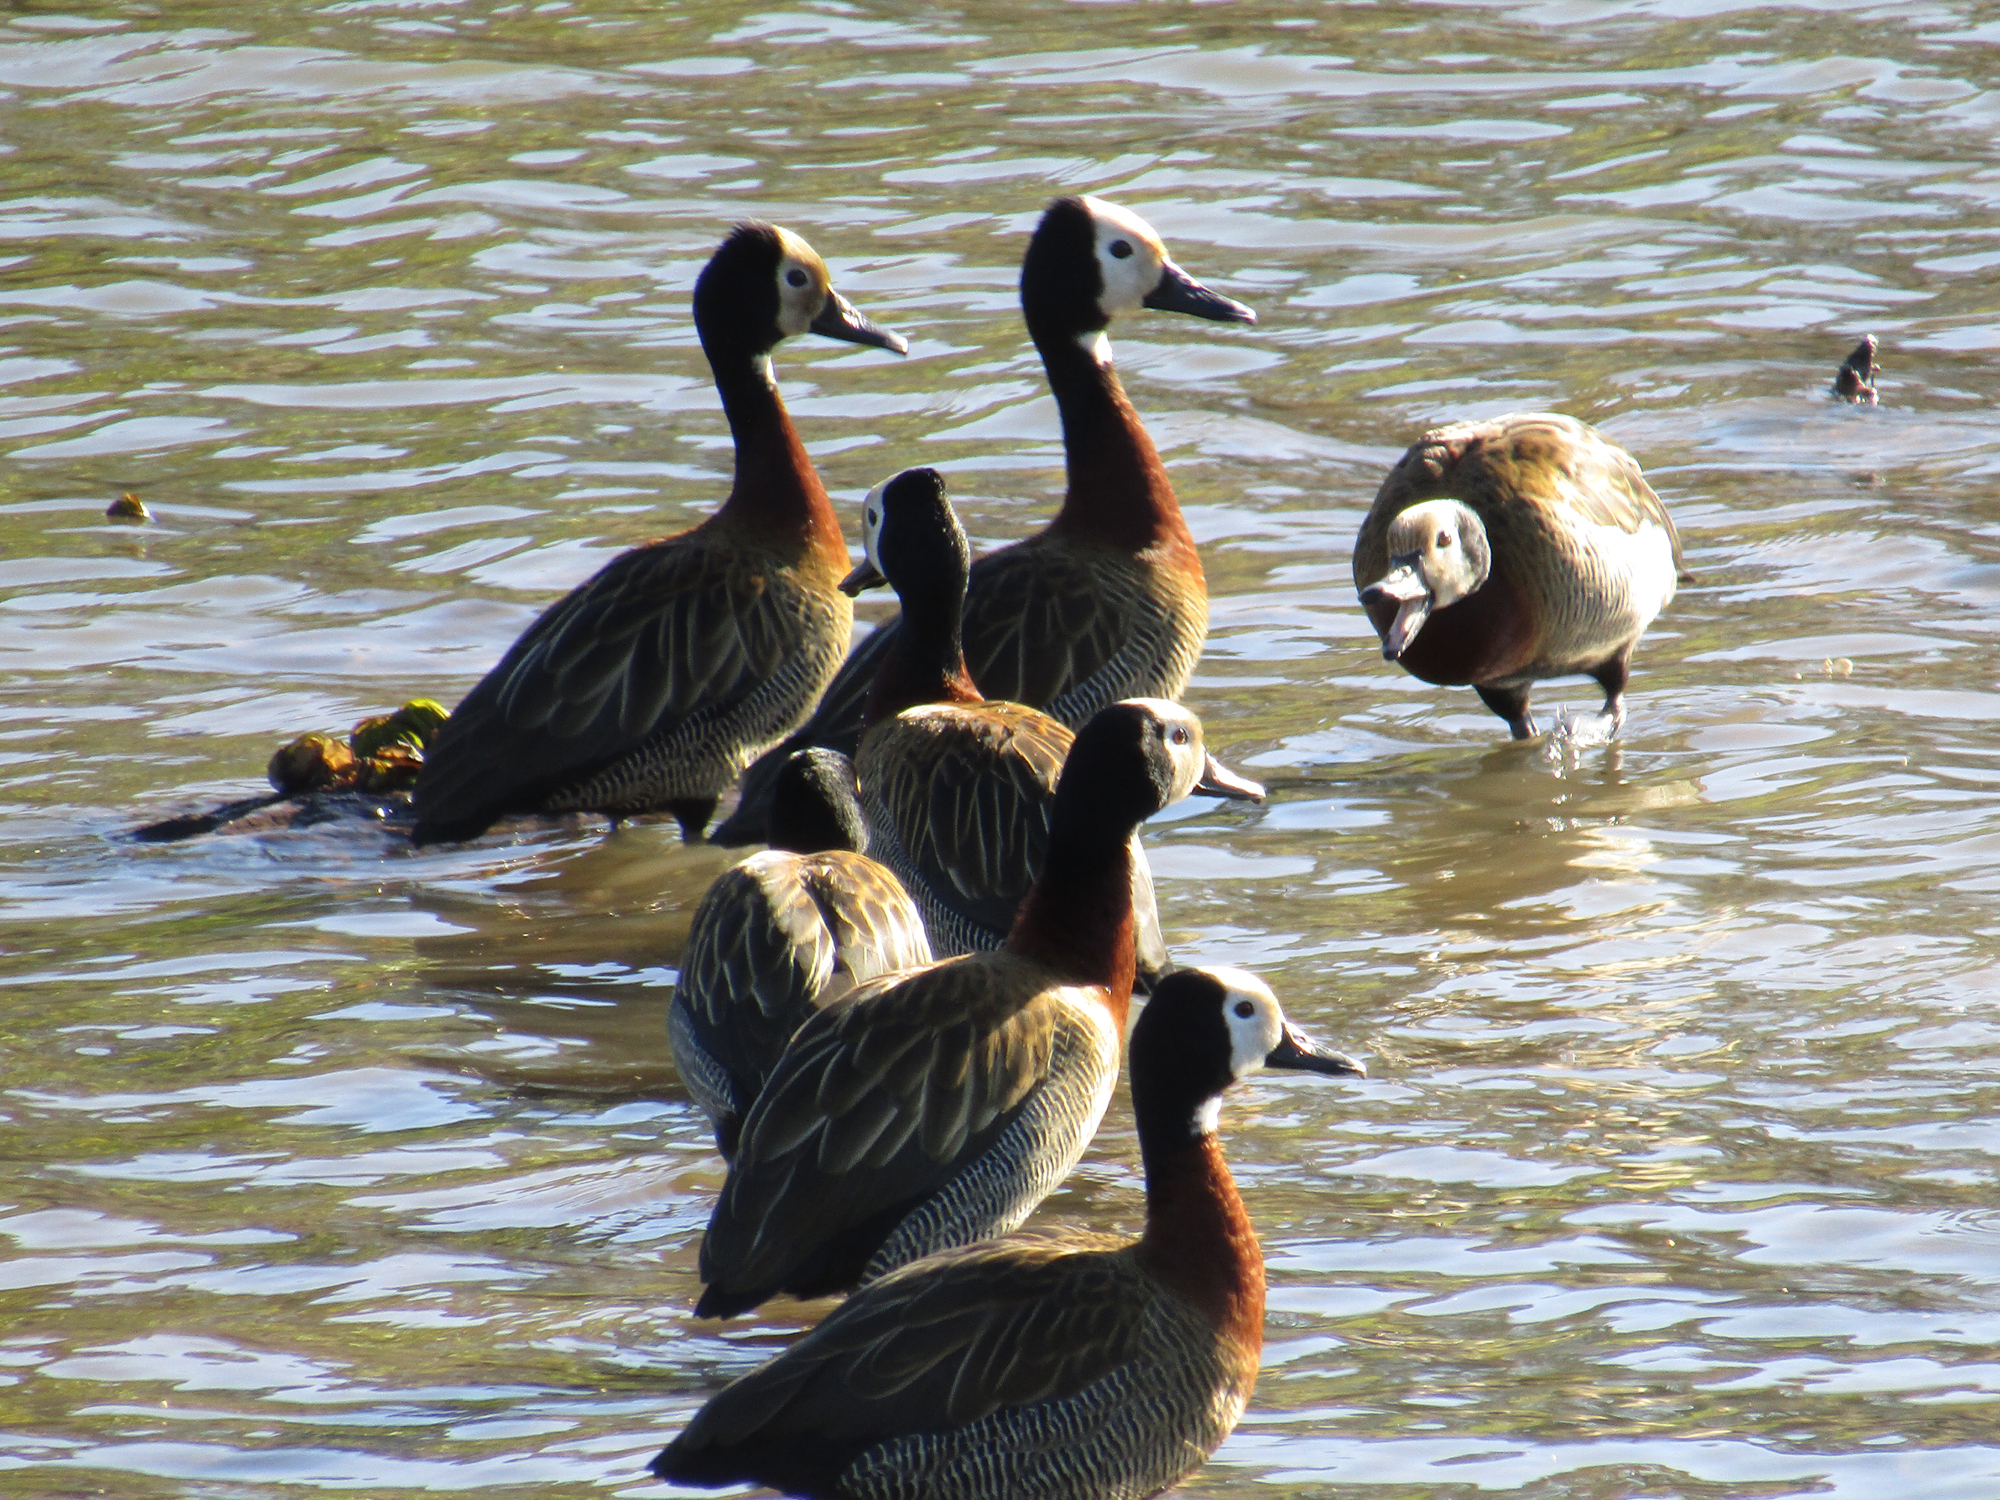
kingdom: Animalia
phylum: Chordata
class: Aves
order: Anseriformes
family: Anatidae
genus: Dendrocygna
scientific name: Dendrocygna viduata
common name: White-faced whistling duck
